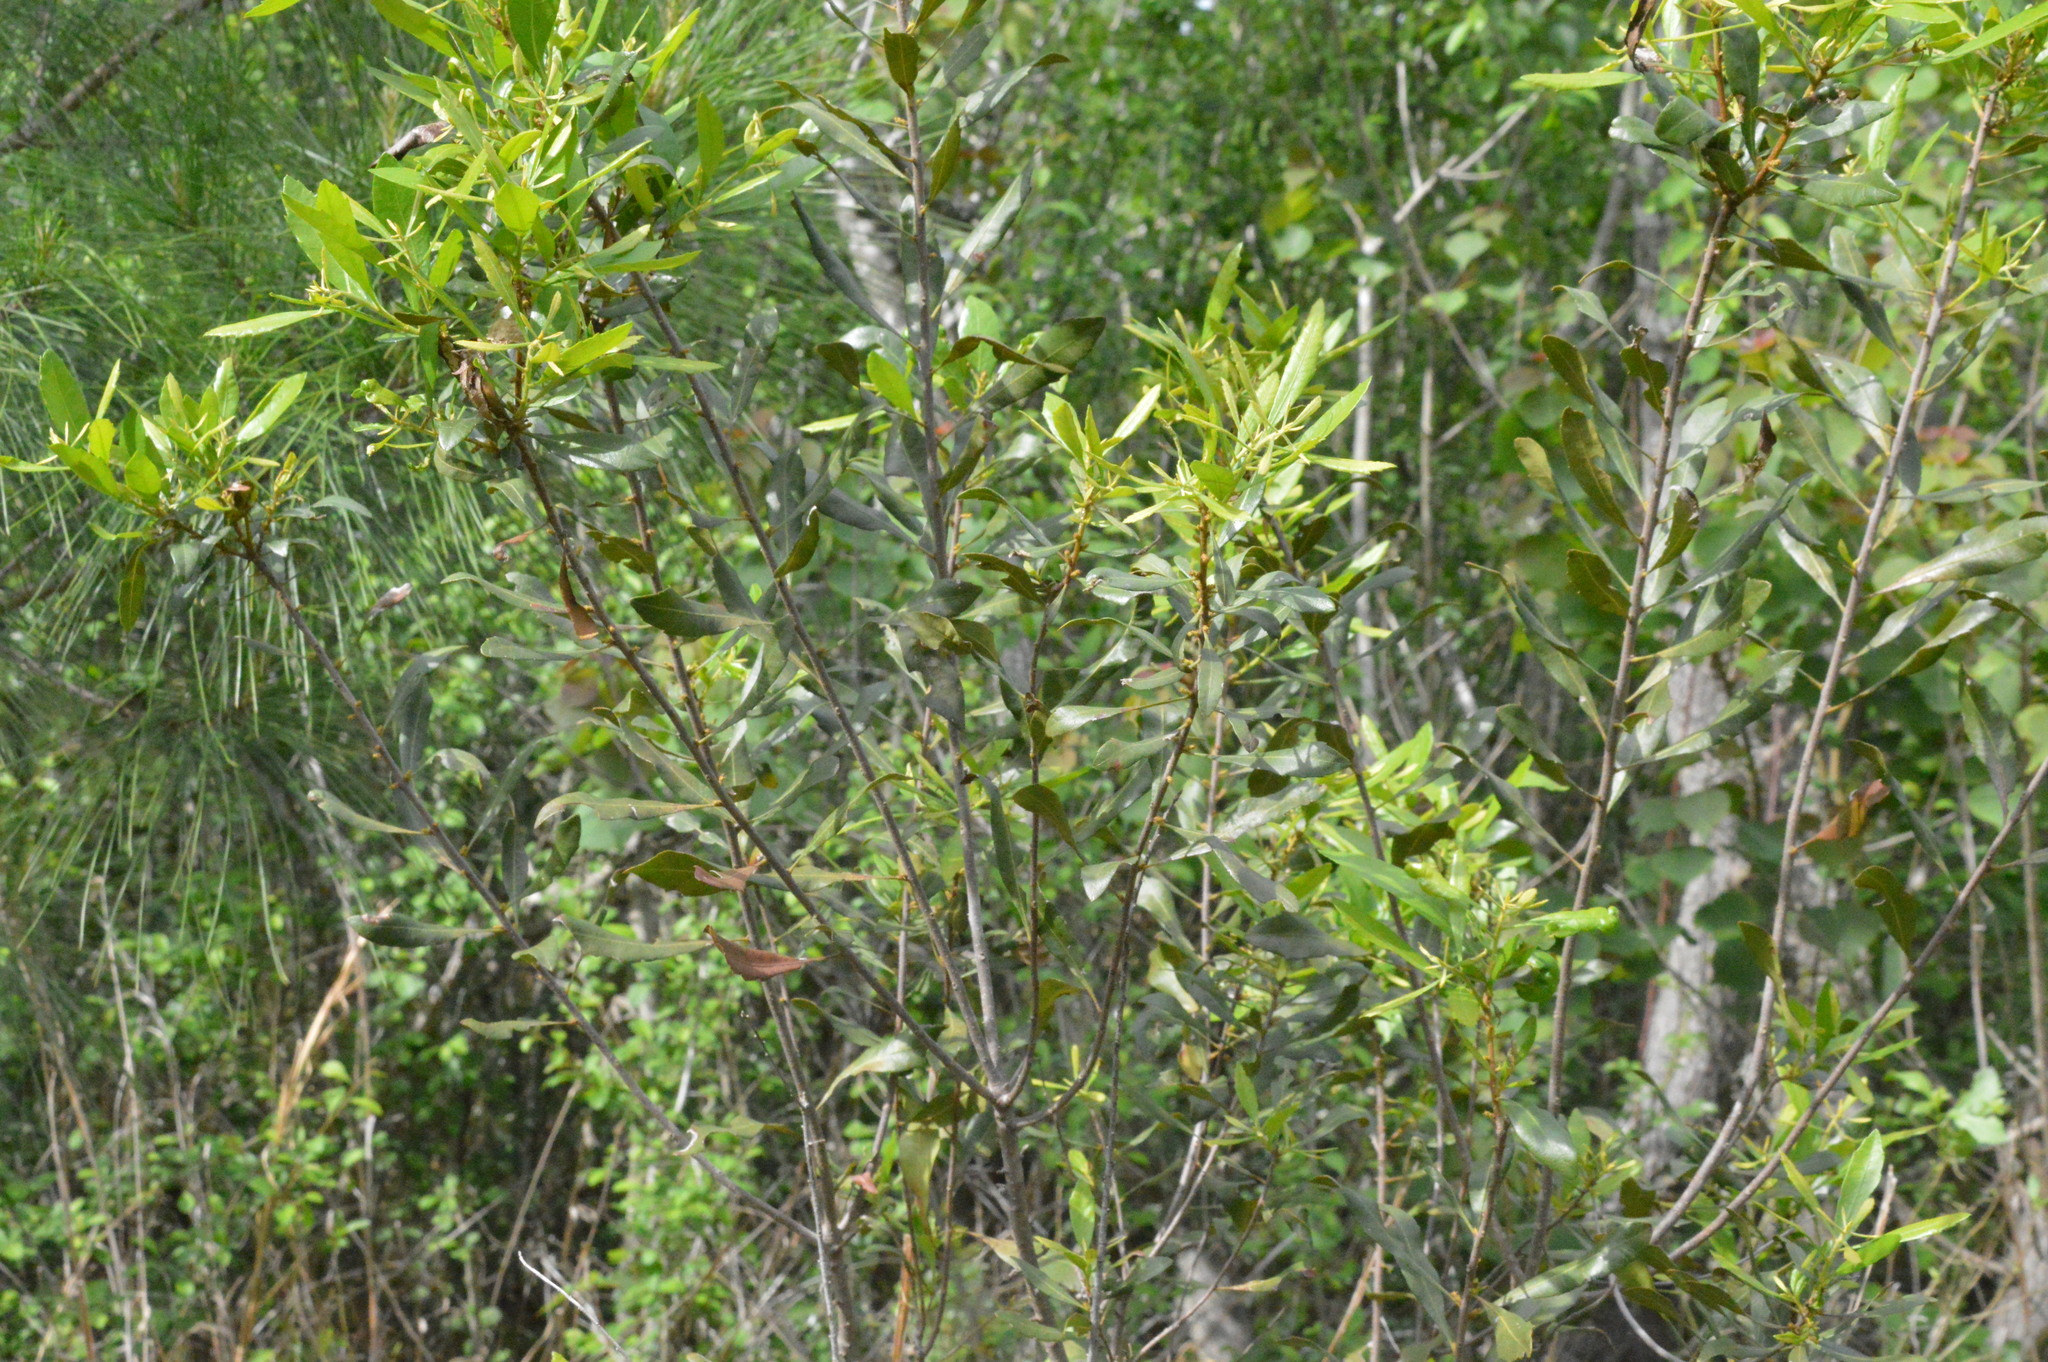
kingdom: Plantae
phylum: Tracheophyta
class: Magnoliopsida
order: Fagales
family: Myricaceae
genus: Morella
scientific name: Morella cerifera
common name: Wax myrtle
